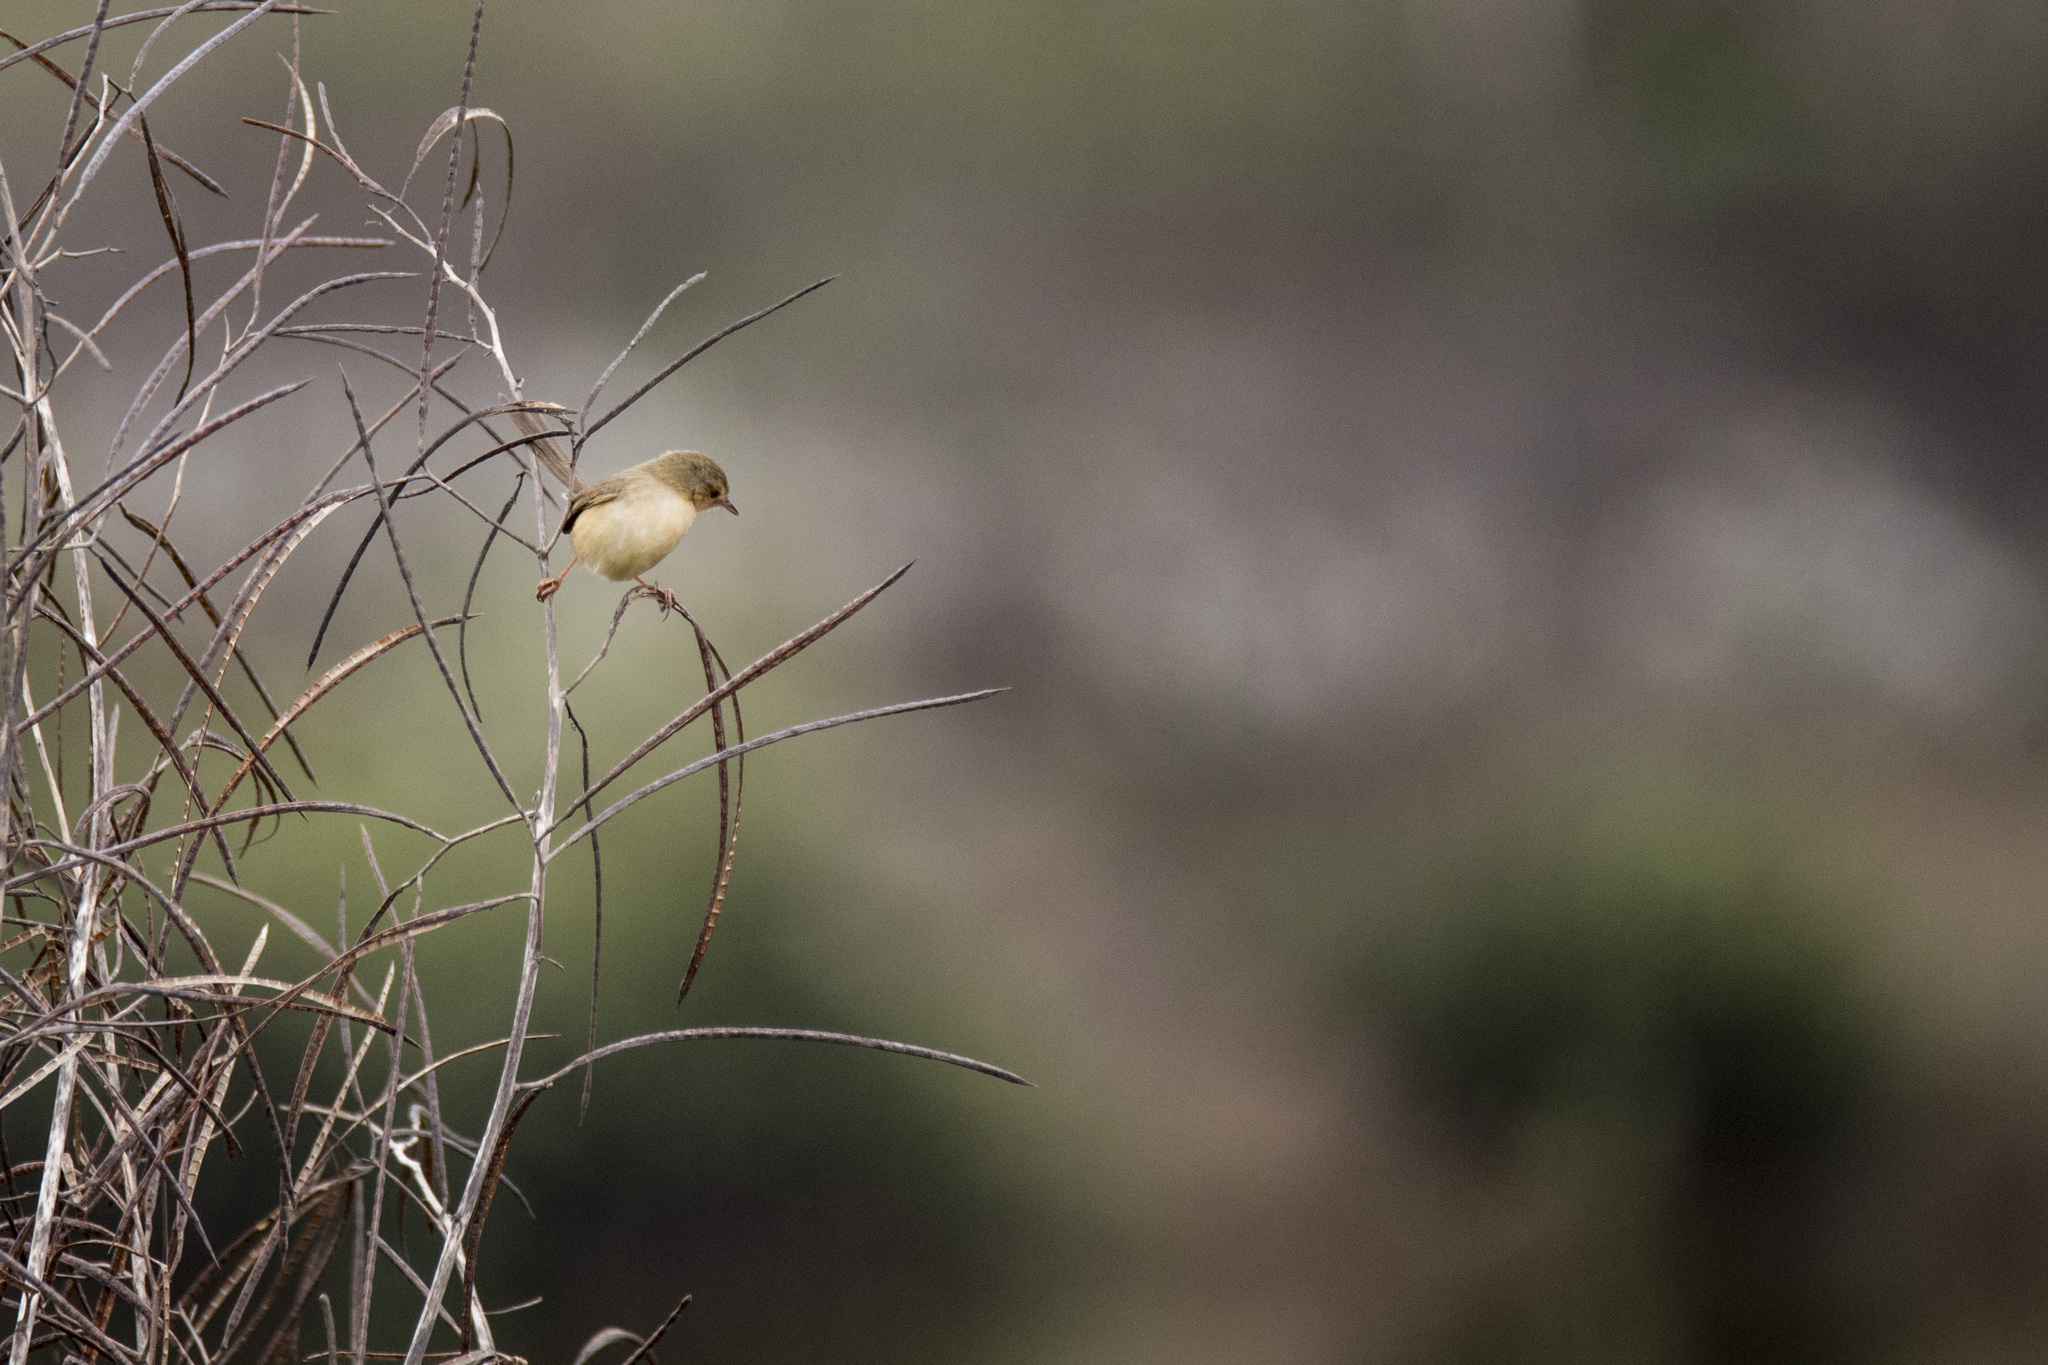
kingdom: Animalia
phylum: Chordata
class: Aves
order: Passeriformes
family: Cisticolidae
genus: Prinia
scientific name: Prinia inornata
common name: Plain prinia
